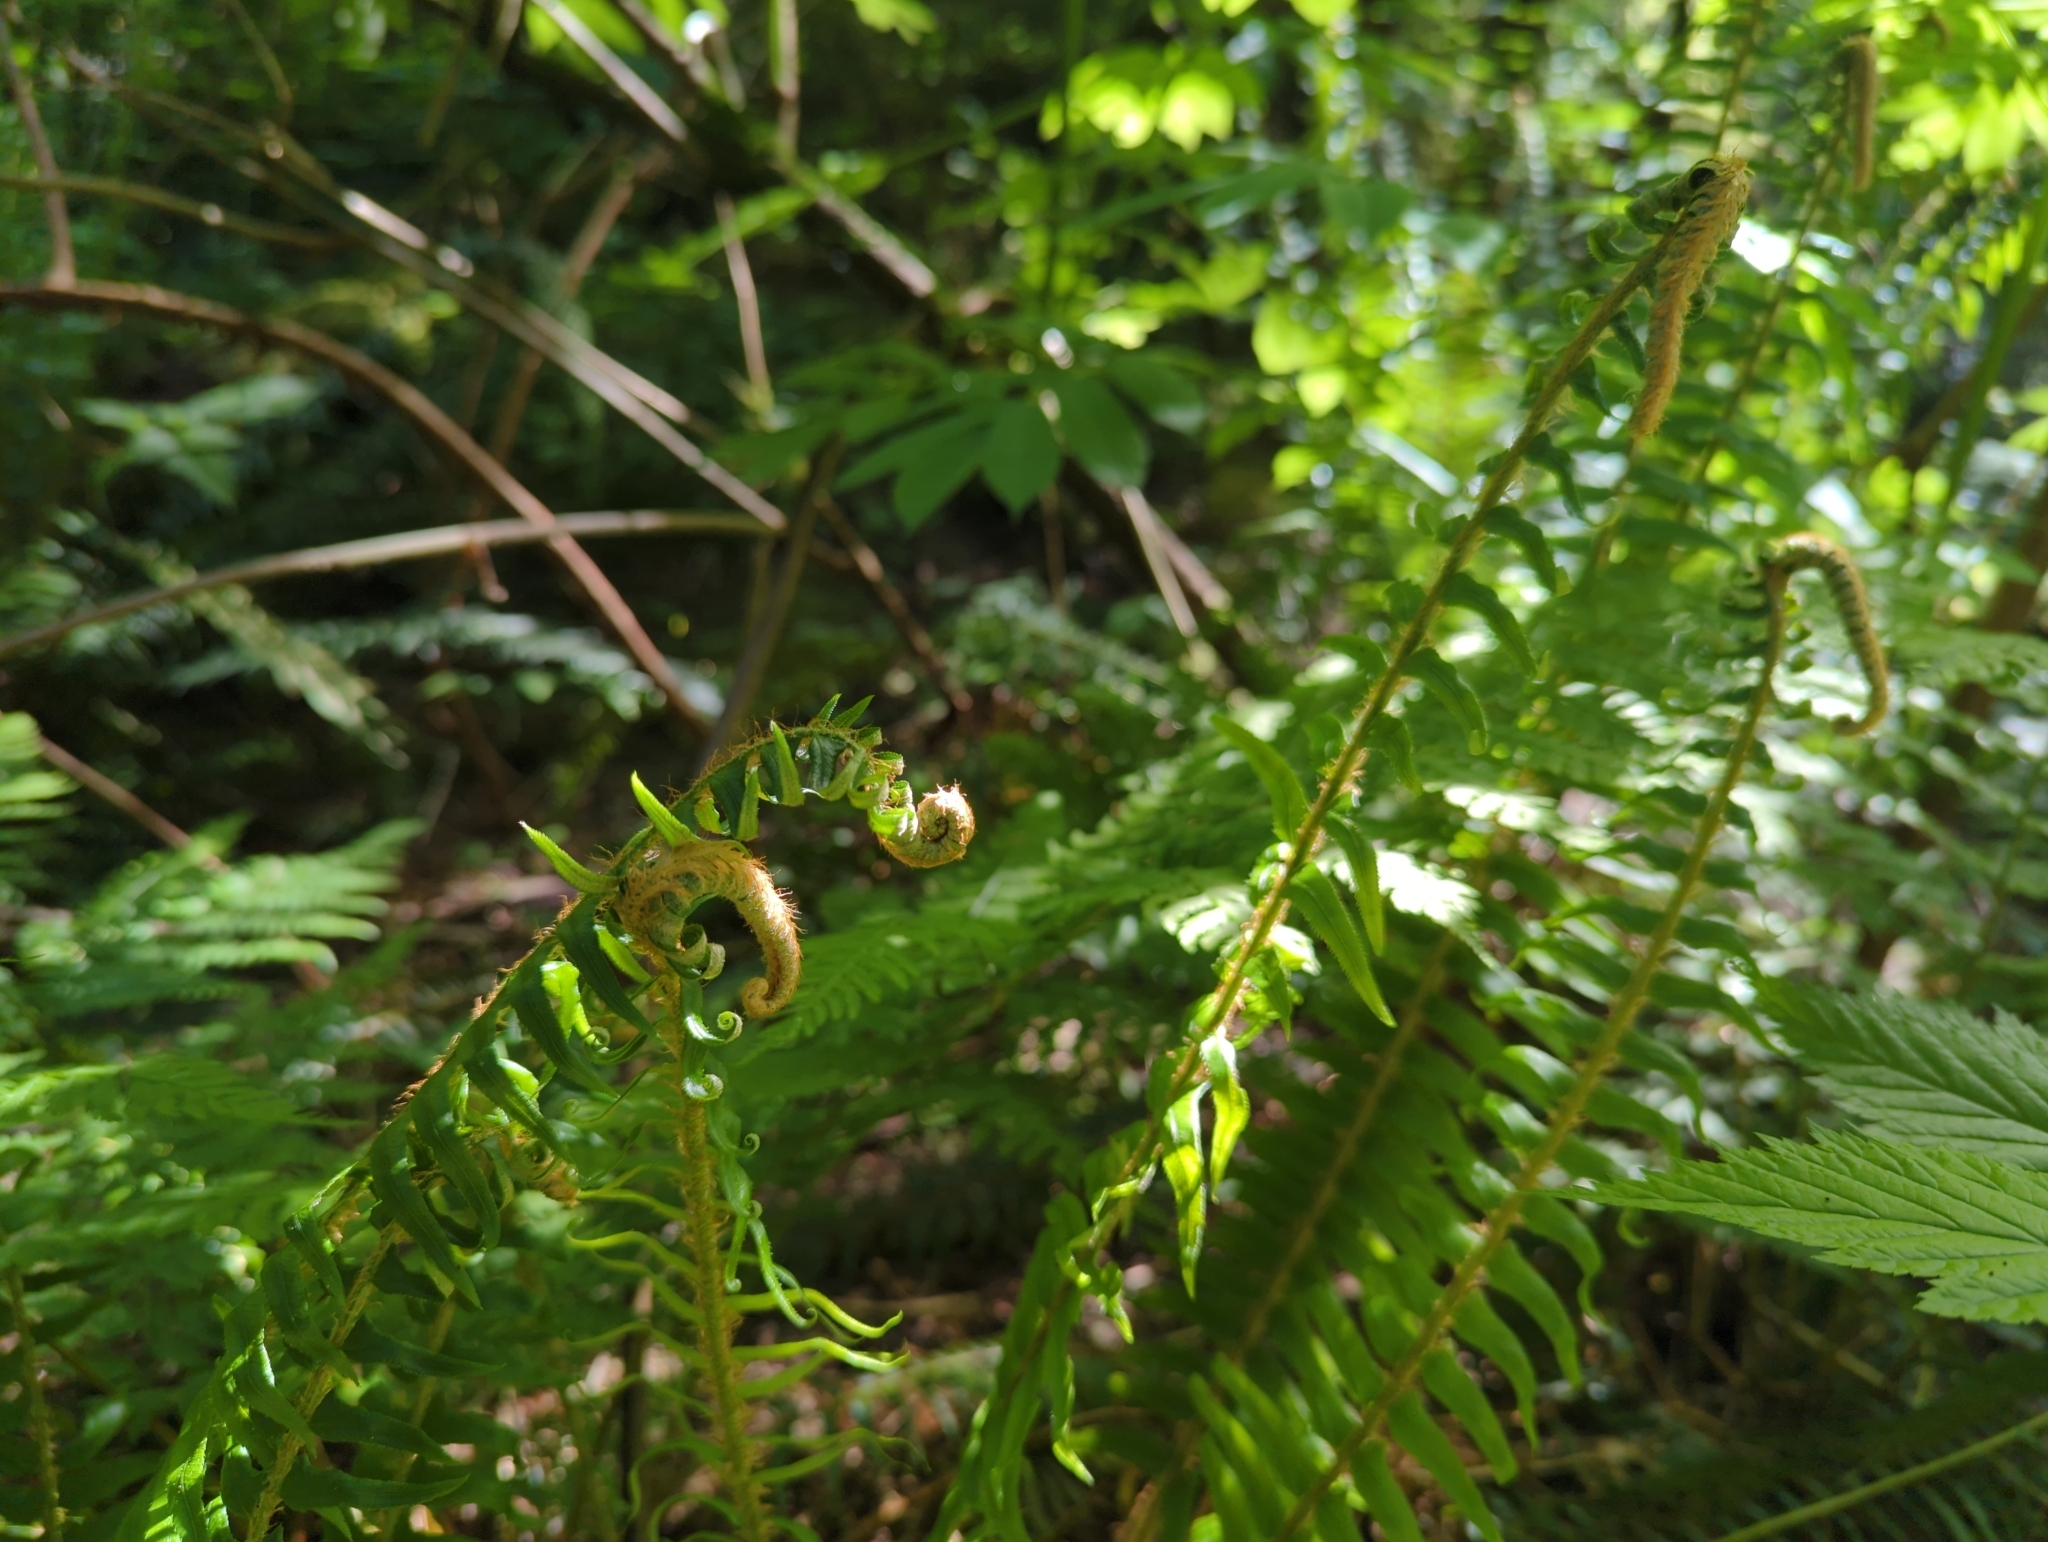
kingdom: Plantae
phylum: Tracheophyta
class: Polypodiopsida
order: Polypodiales
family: Dryopteridaceae
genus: Polystichum
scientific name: Polystichum munitum
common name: Western sword-fern
